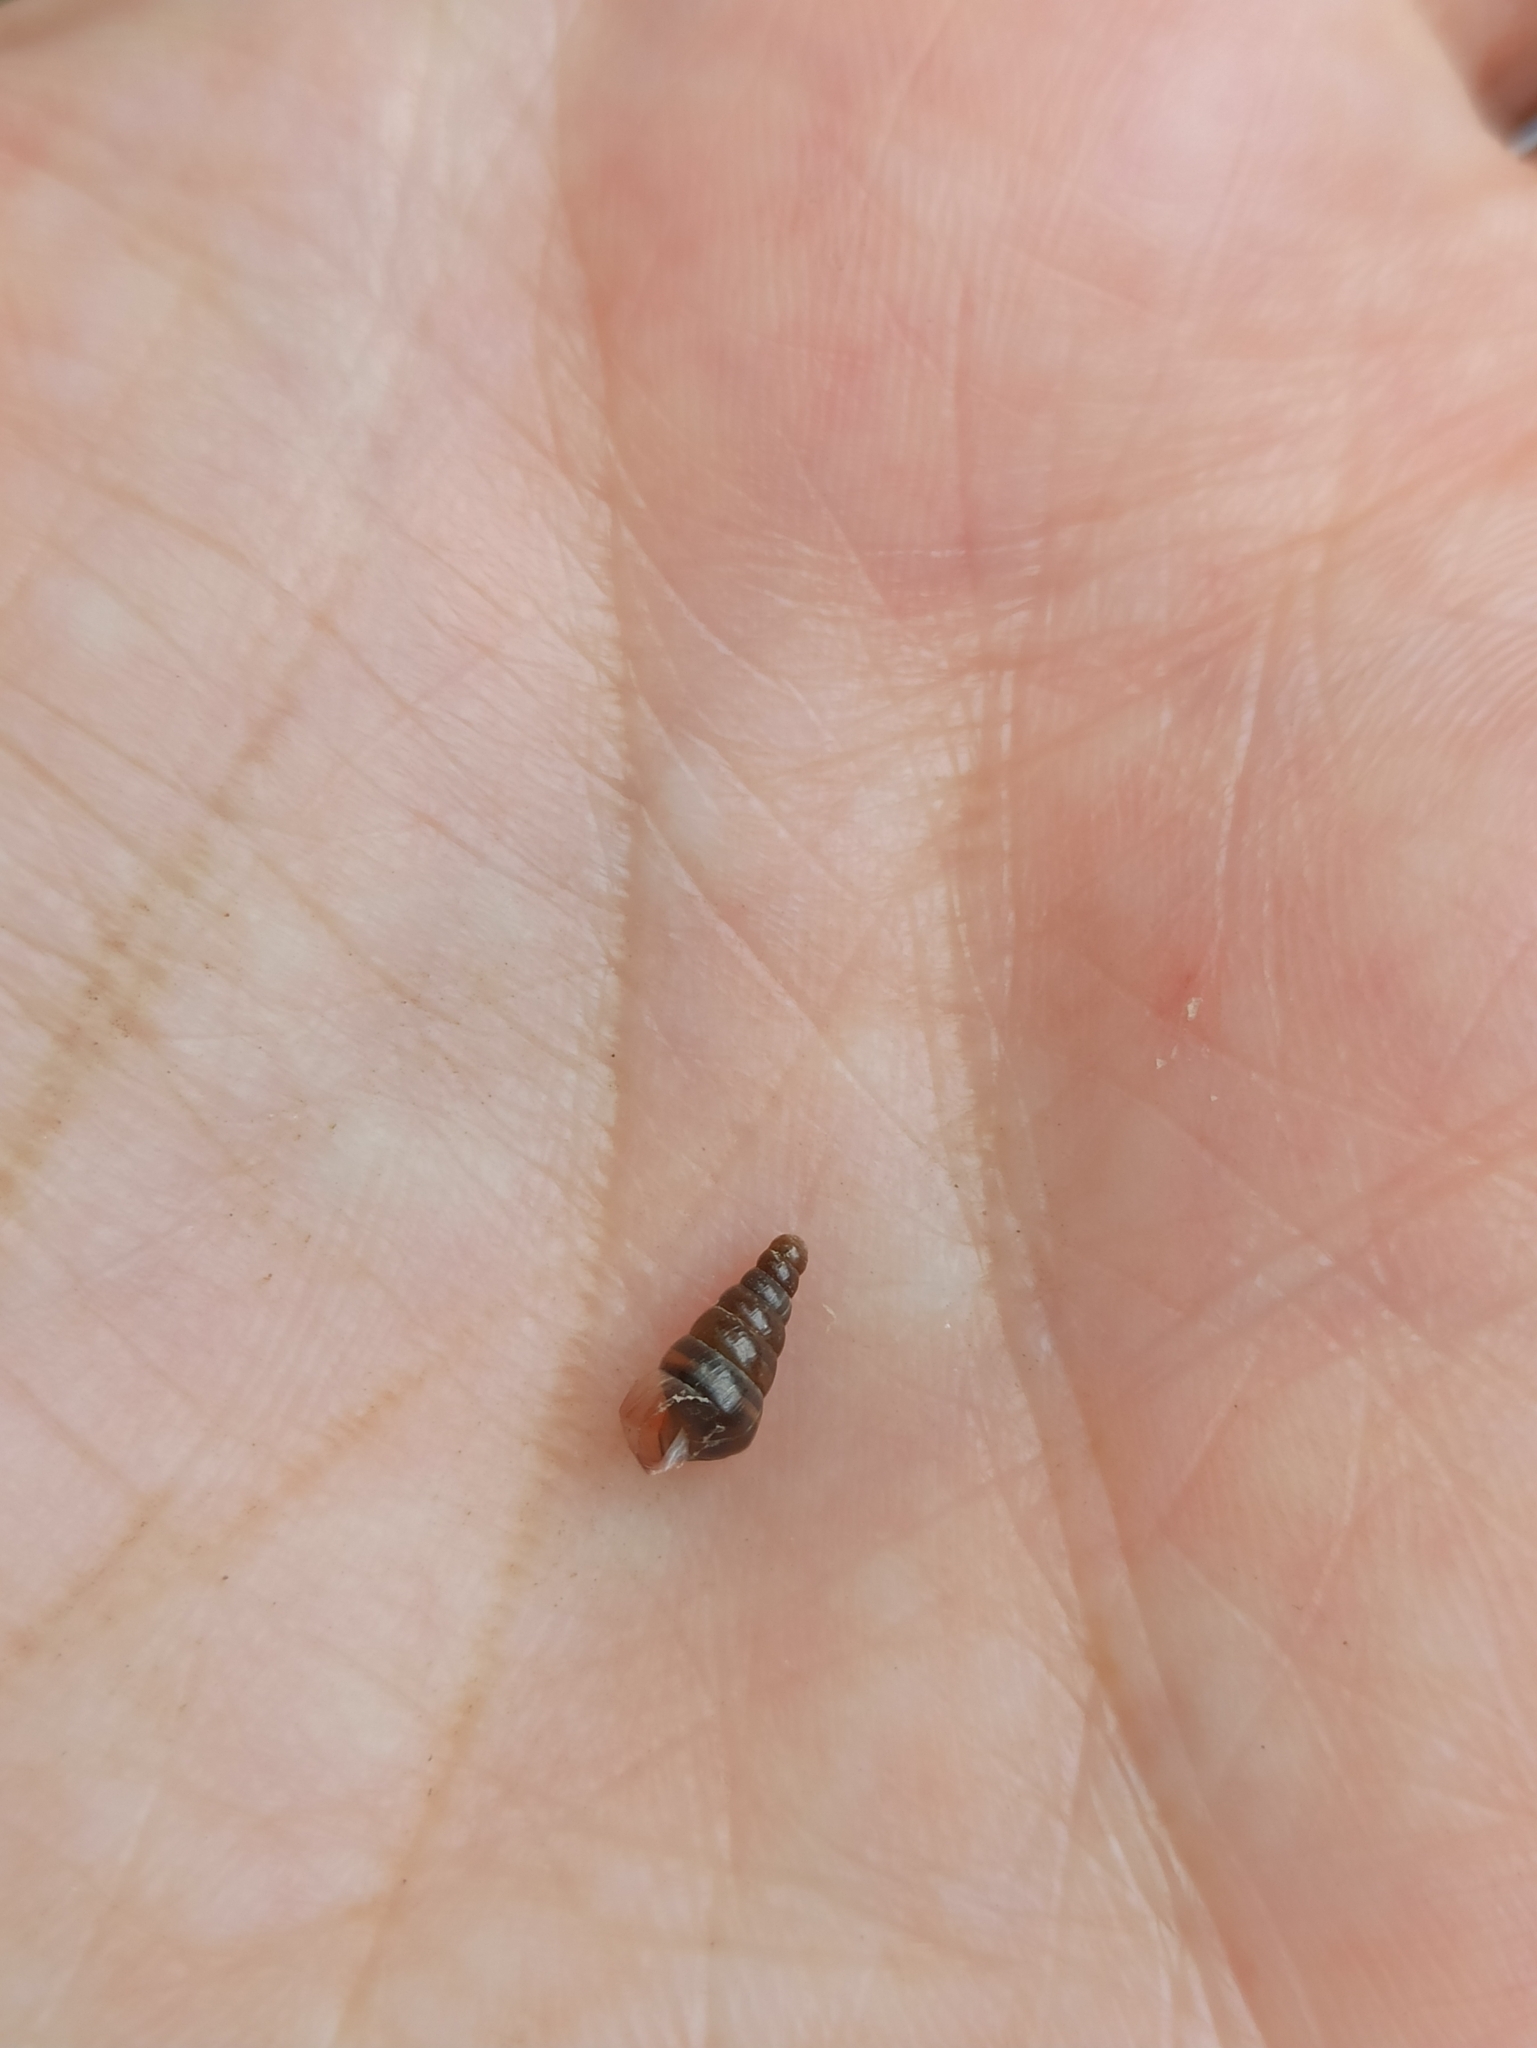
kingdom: Animalia
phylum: Mollusca
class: Gastropoda
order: Stylommatophora
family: Clausiliidae
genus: Cochlodina
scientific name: Cochlodina laminata
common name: Plaited door snail
